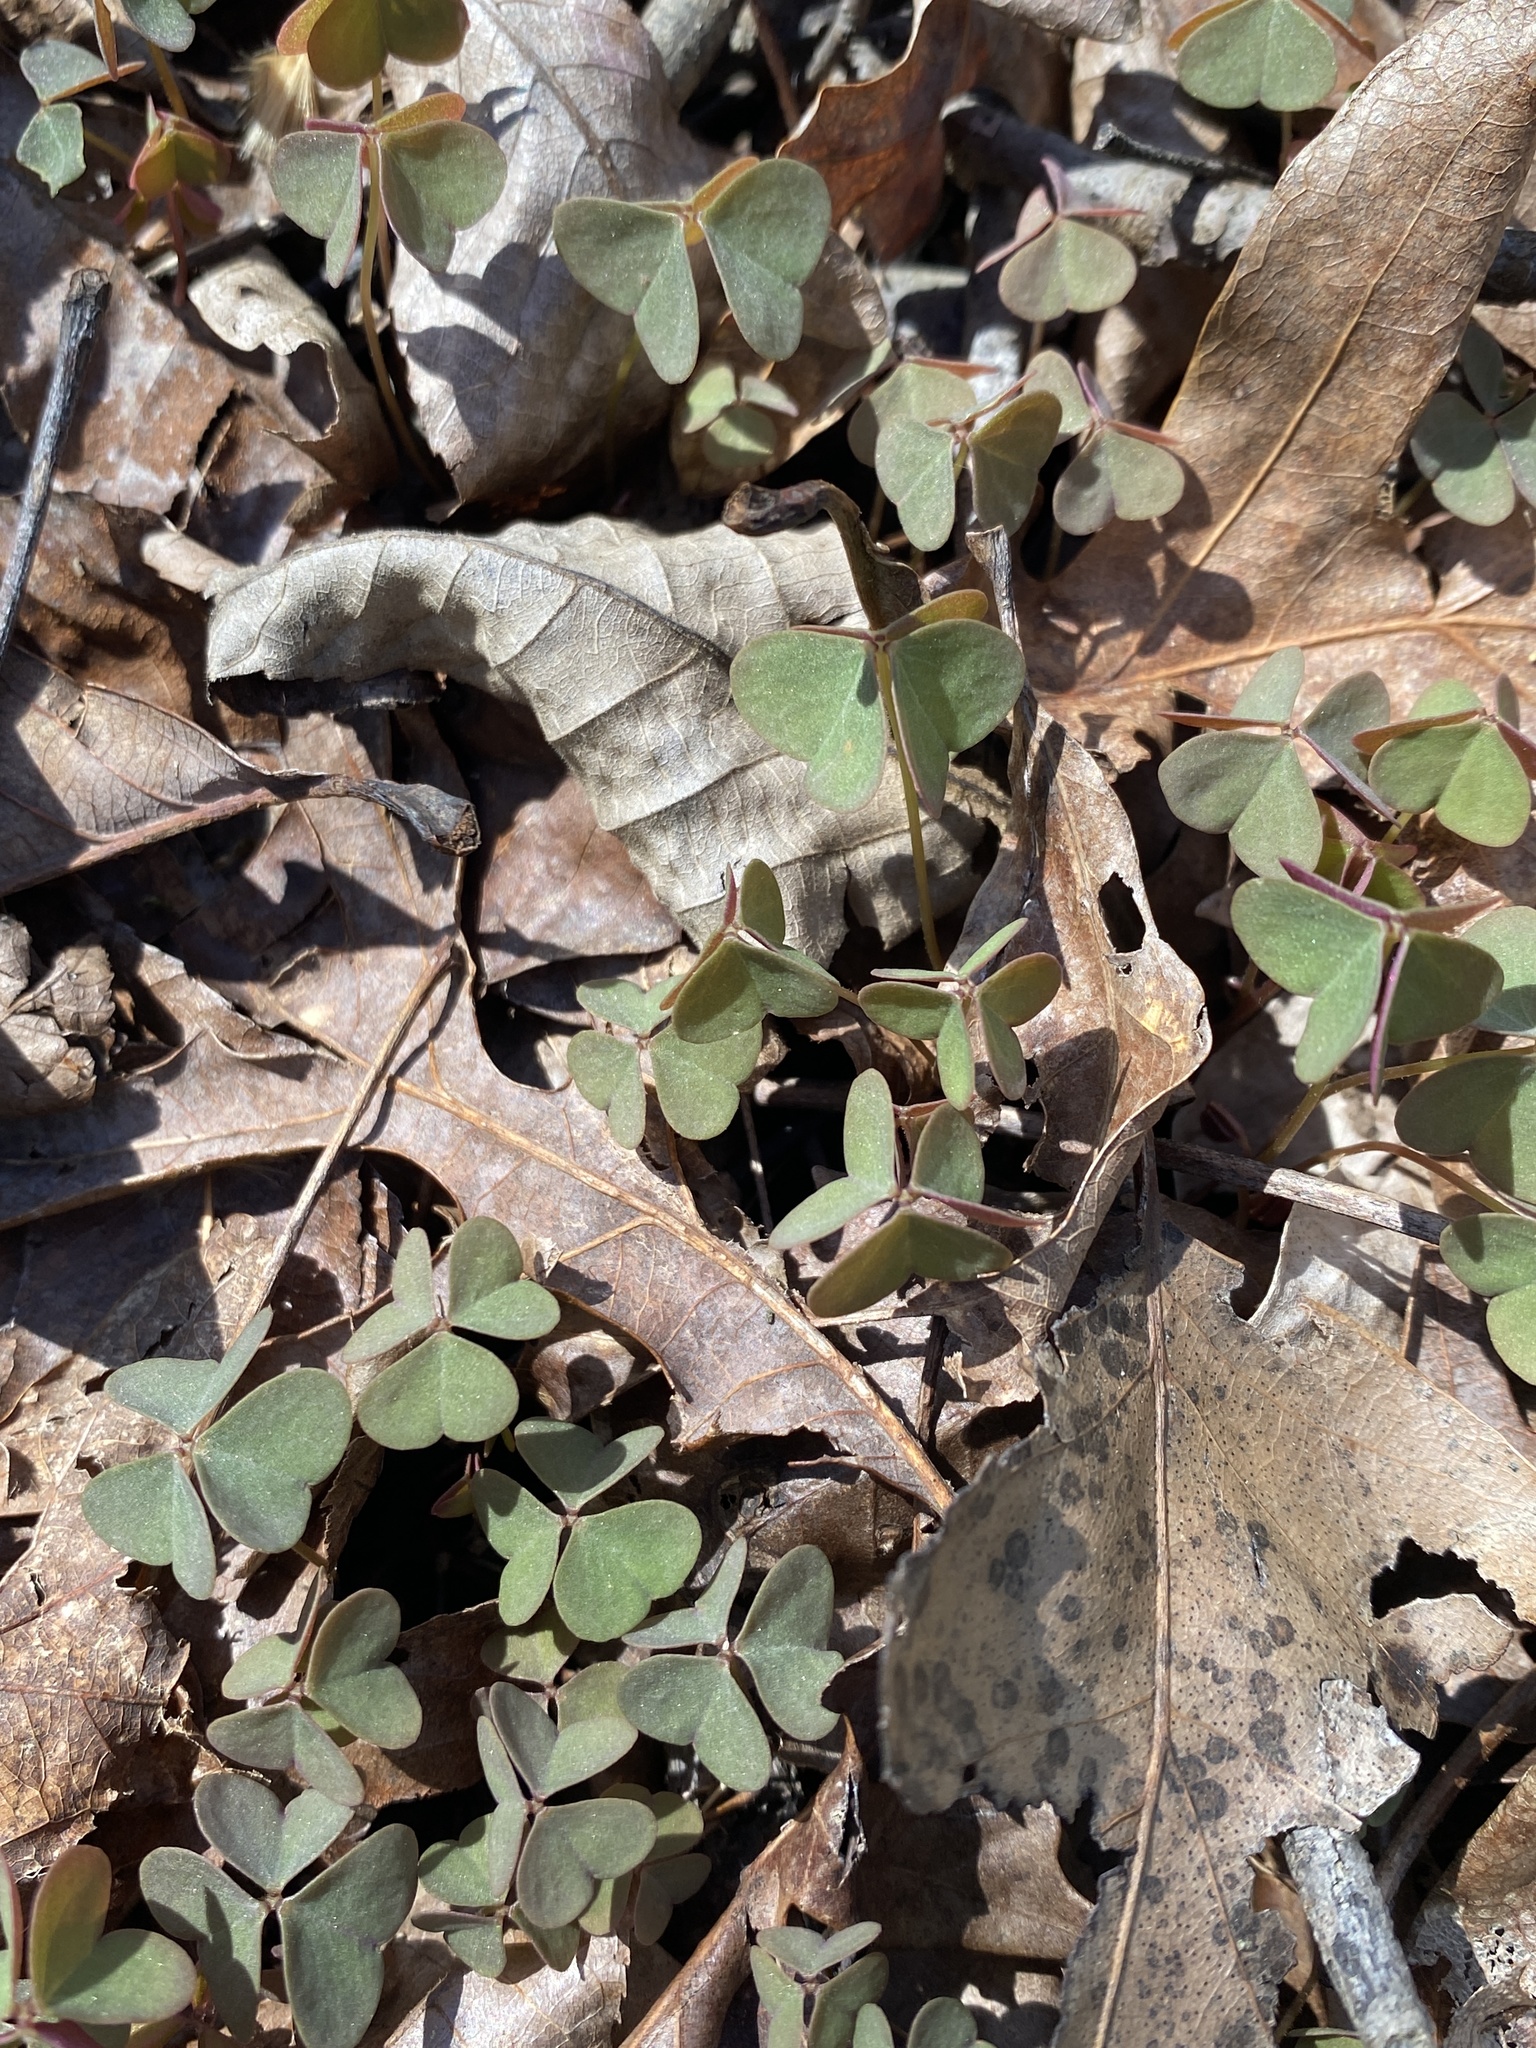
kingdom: Plantae
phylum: Tracheophyta
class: Magnoliopsida
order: Oxalidales
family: Oxalidaceae
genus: Oxalis
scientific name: Oxalis violacea
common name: Violet wood-sorrel
